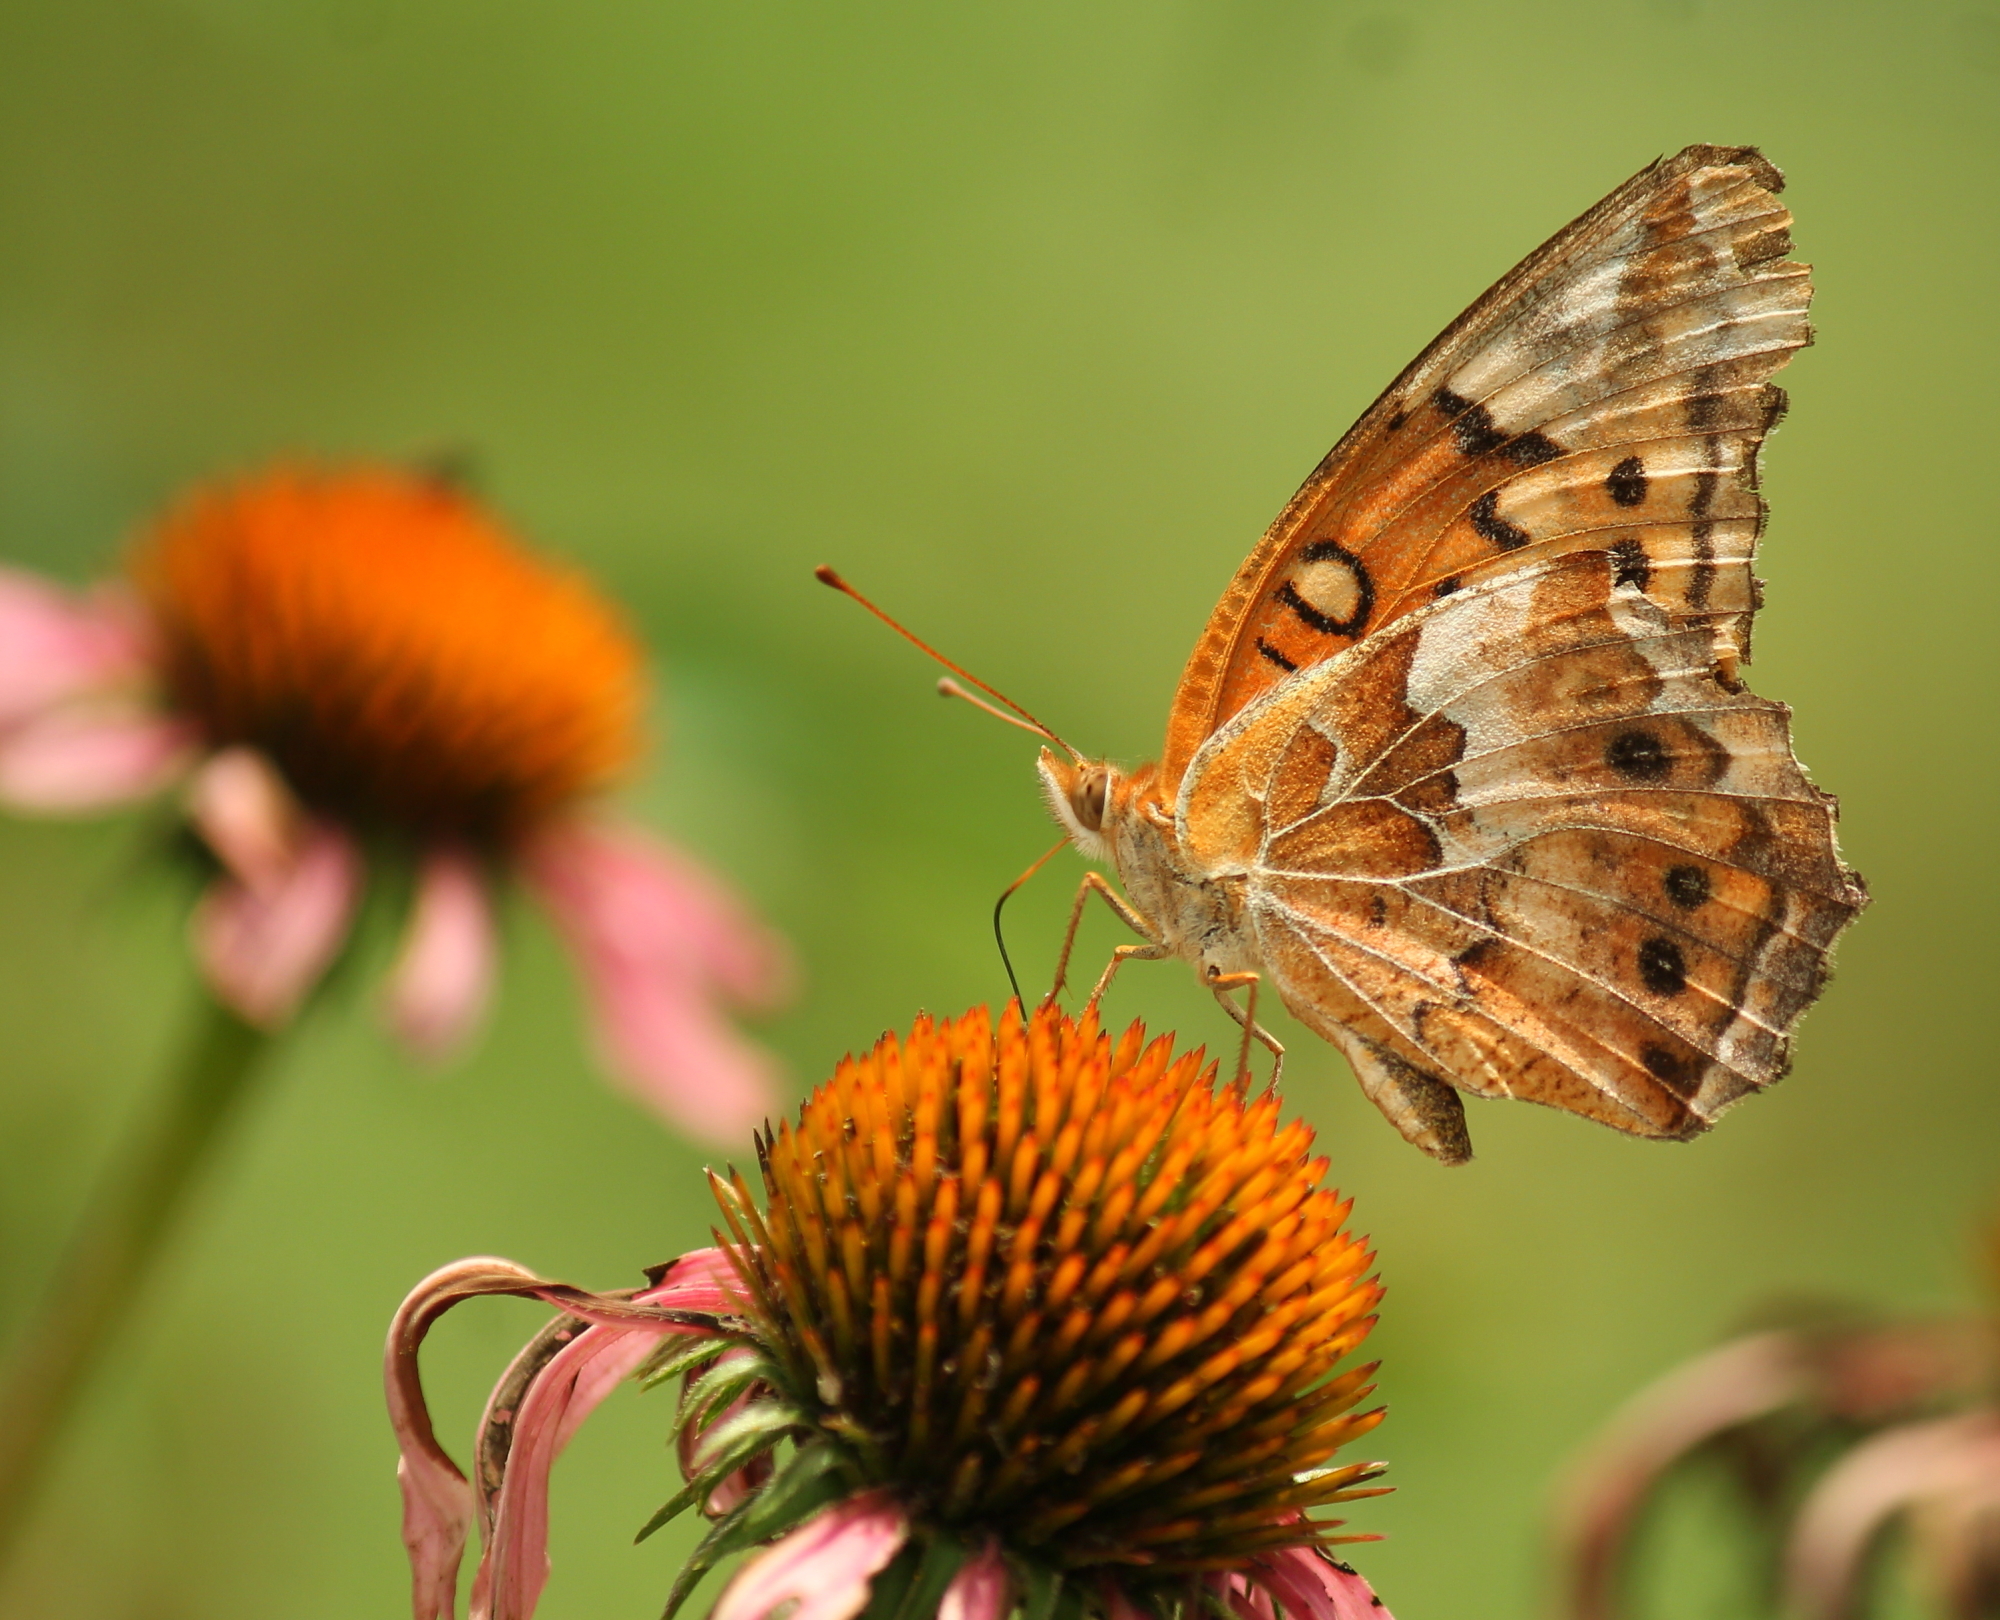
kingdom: Animalia
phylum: Arthropoda
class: Insecta
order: Lepidoptera
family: Nymphalidae
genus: Euptoieta
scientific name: Euptoieta claudia
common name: Variegated fritillary
